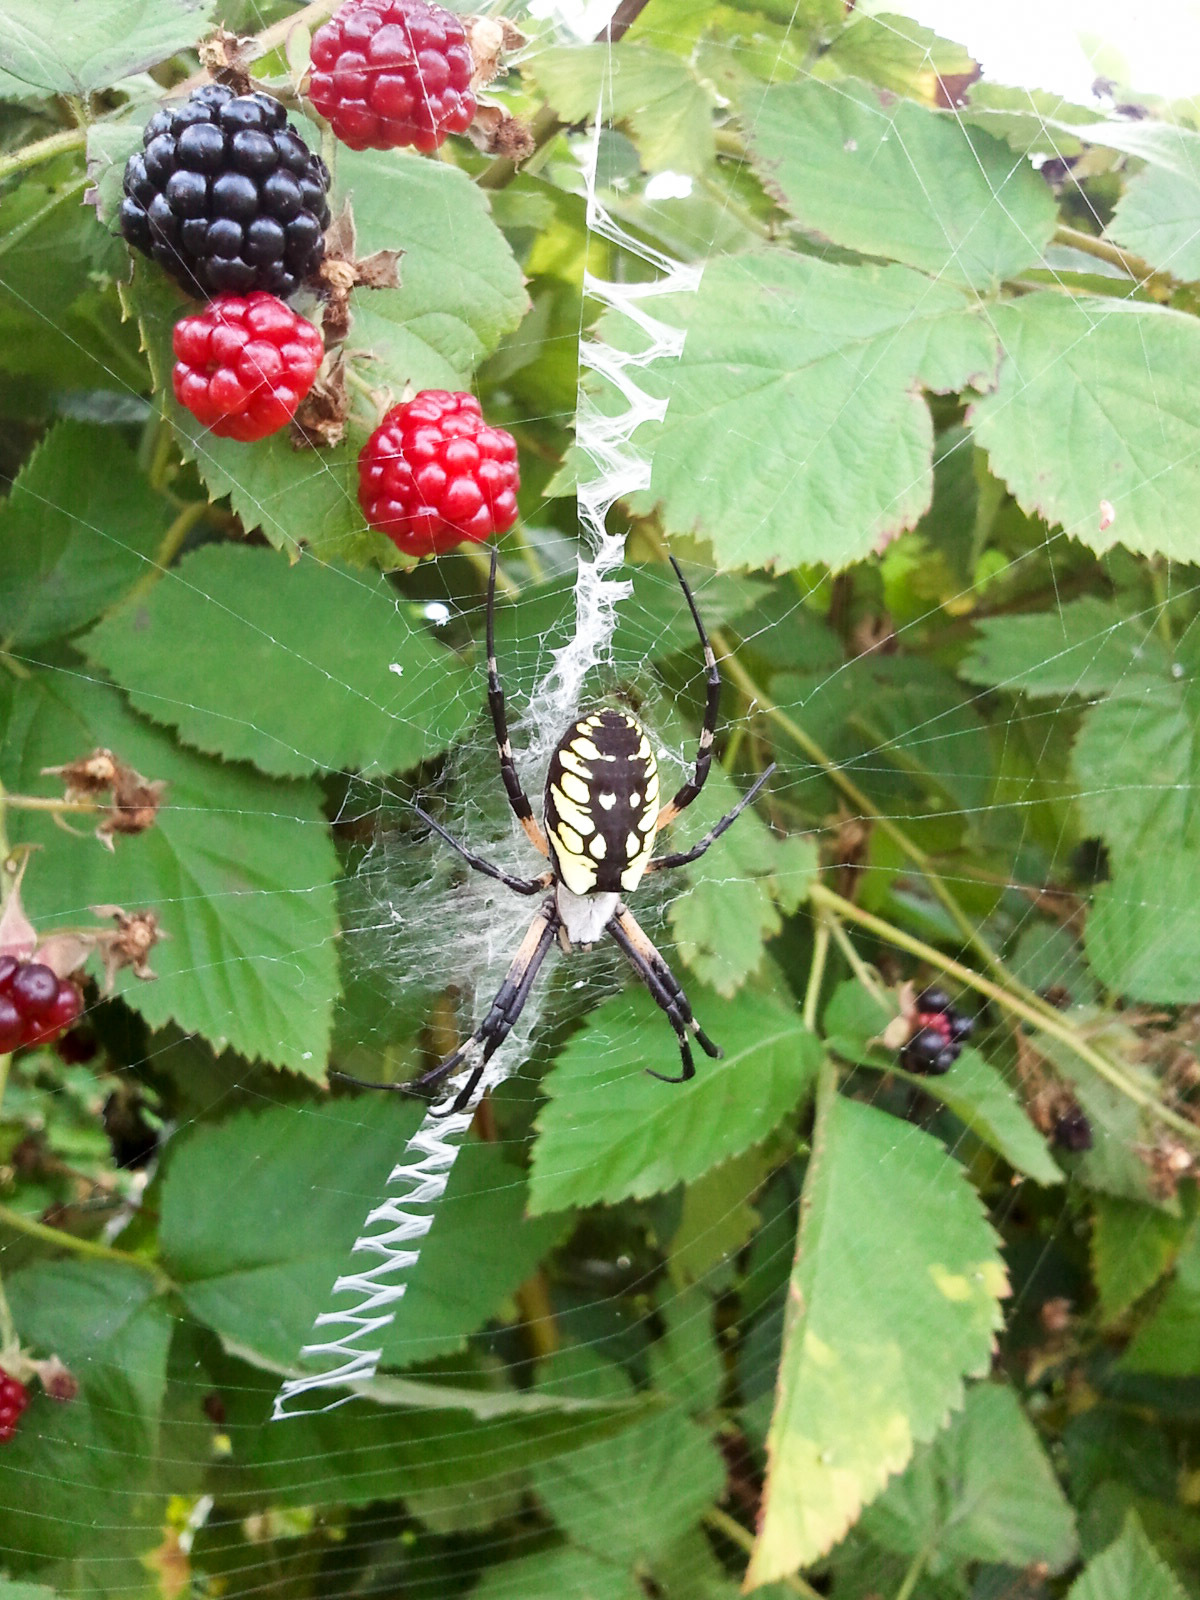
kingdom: Animalia
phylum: Arthropoda
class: Arachnida
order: Araneae
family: Araneidae
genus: Argiope
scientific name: Argiope aurantia
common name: Orb weavers
